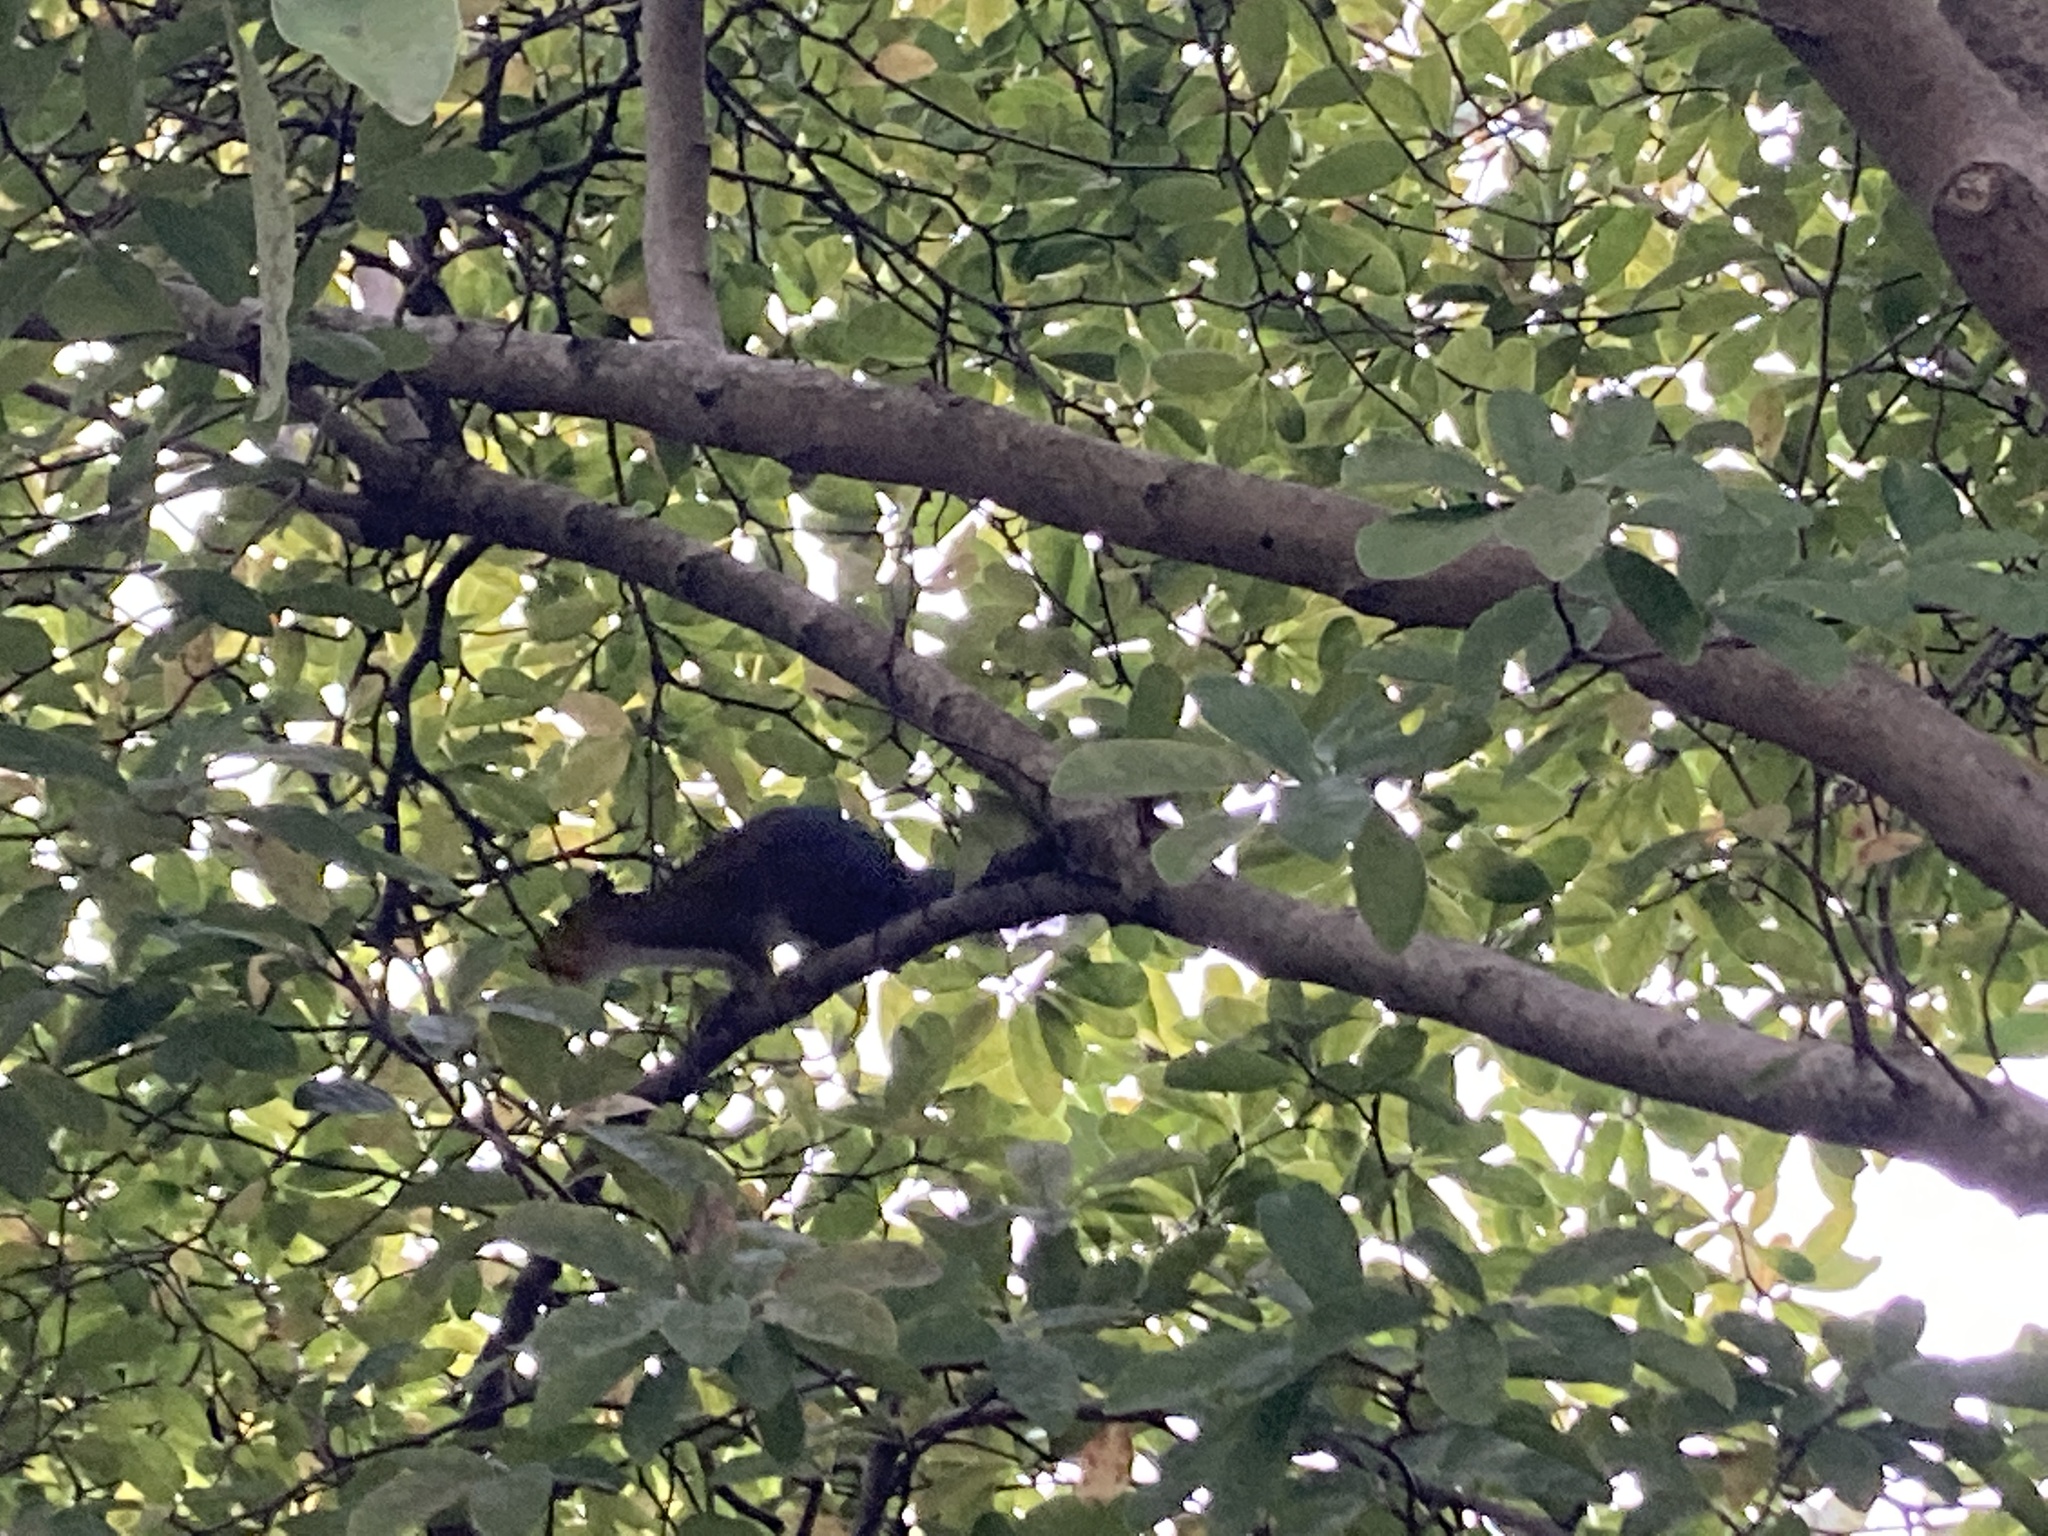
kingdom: Animalia
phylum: Chordata
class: Mammalia
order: Rodentia
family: Sciuridae
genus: Sciurus
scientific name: Sciurus carolinensis
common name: Eastern gray squirrel
